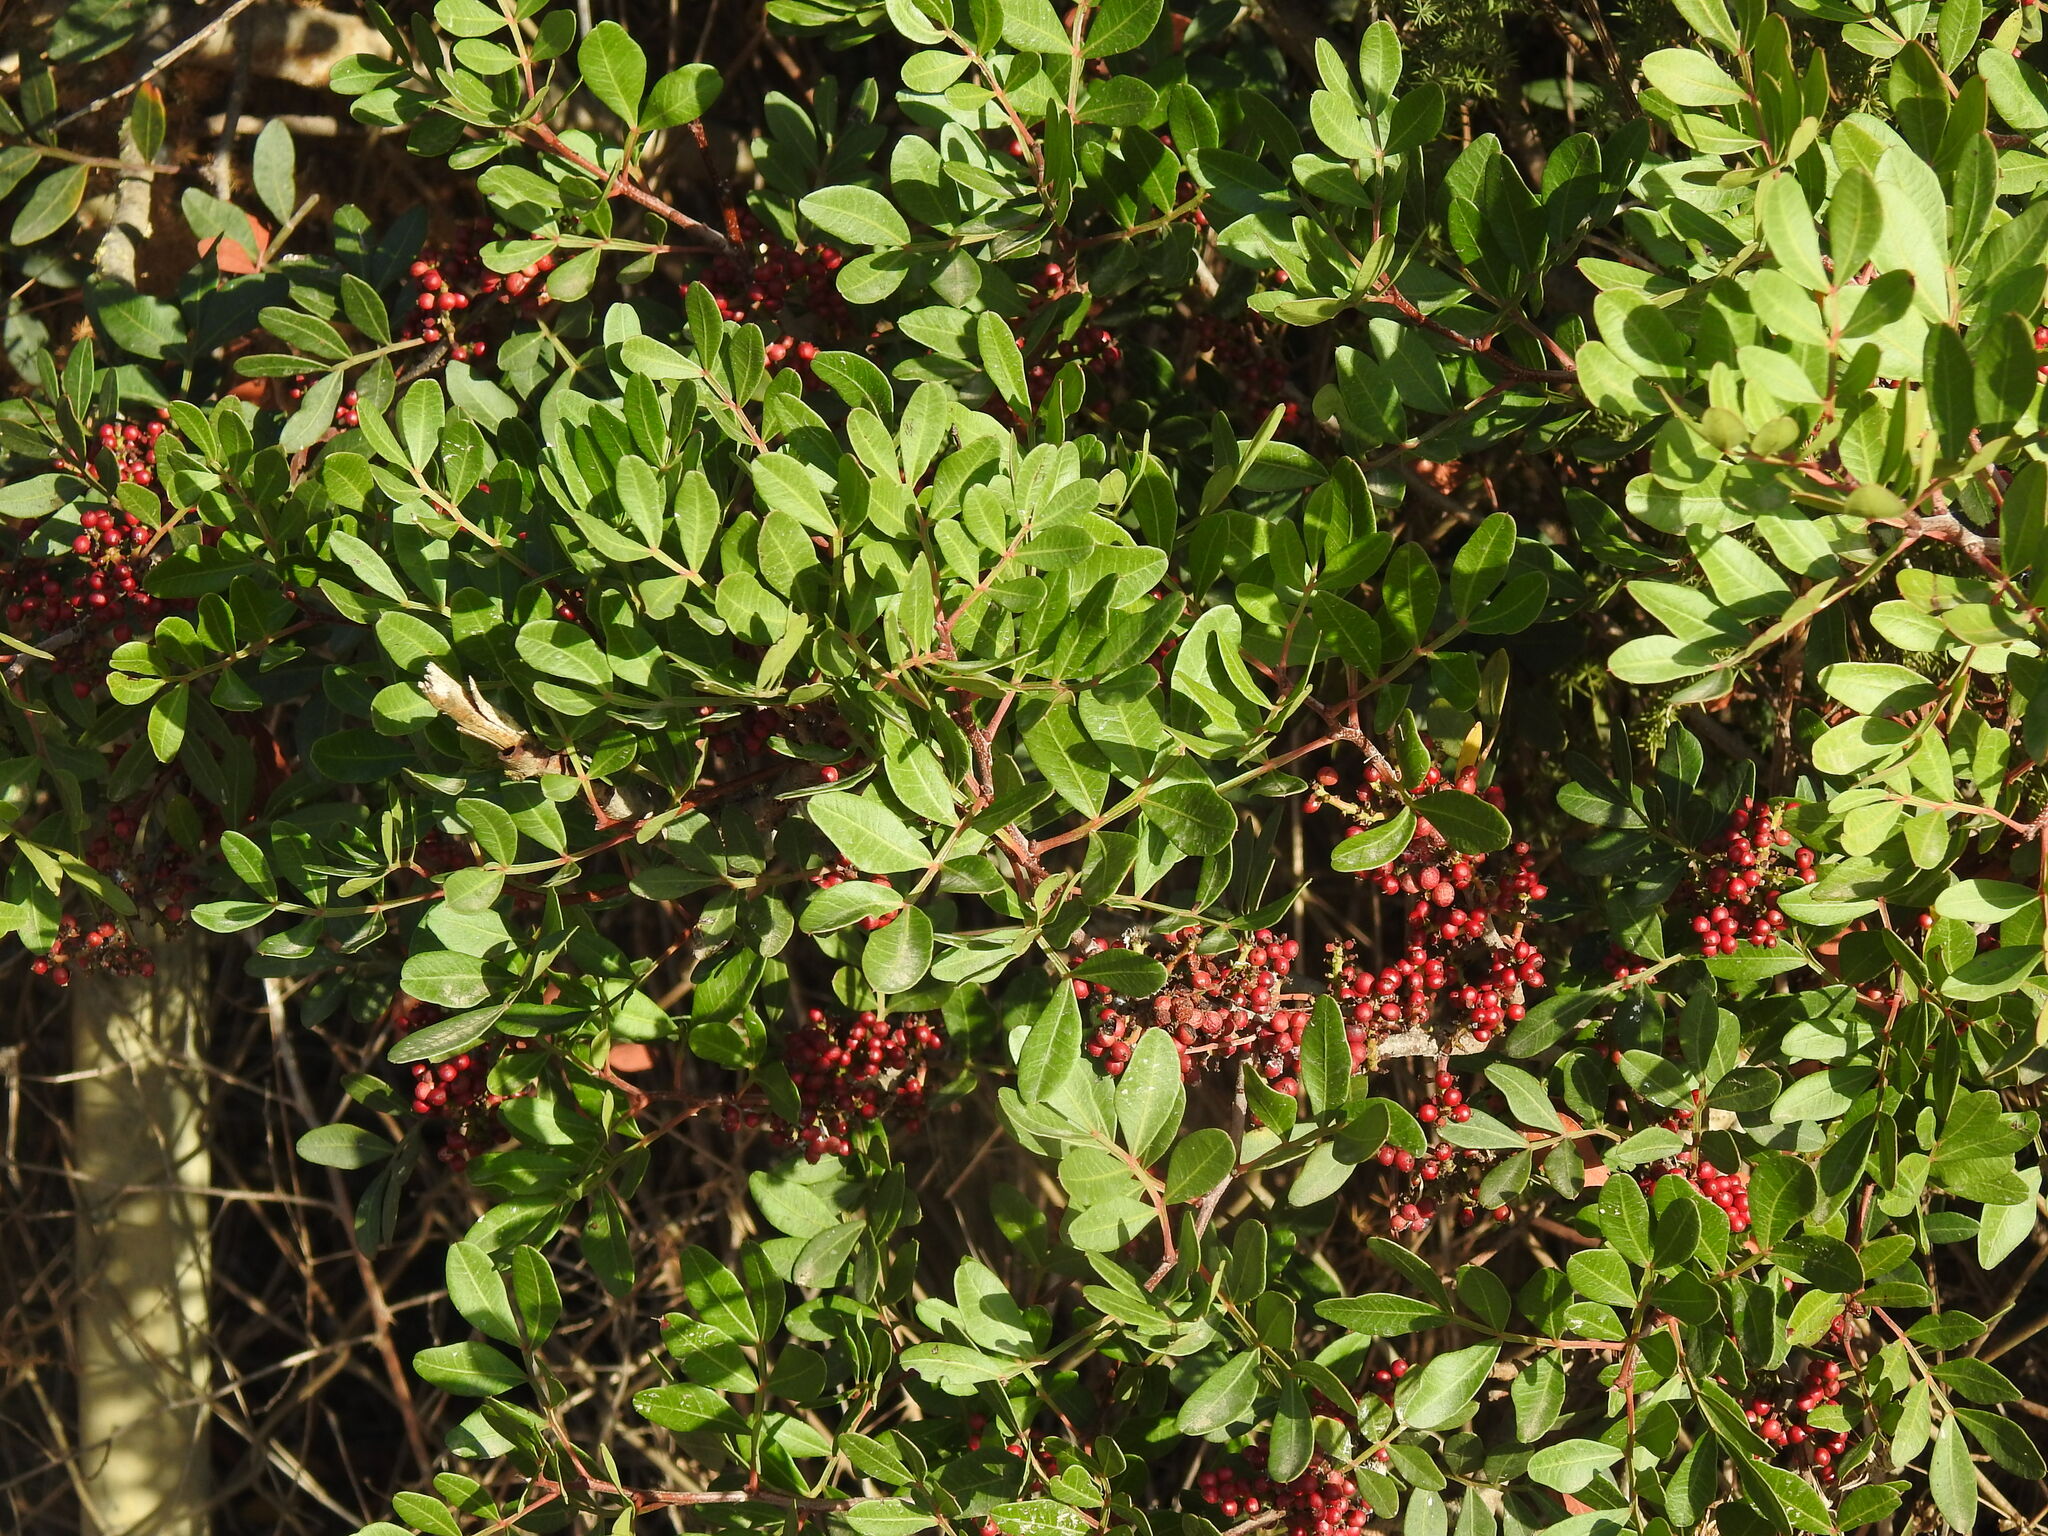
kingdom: Plantae
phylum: Tracheophyta
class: Magnoliopsida
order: Sapindales
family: Anacardiaceae
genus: Pistacia
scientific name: Pistacia lentiscus
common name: Lentisk
